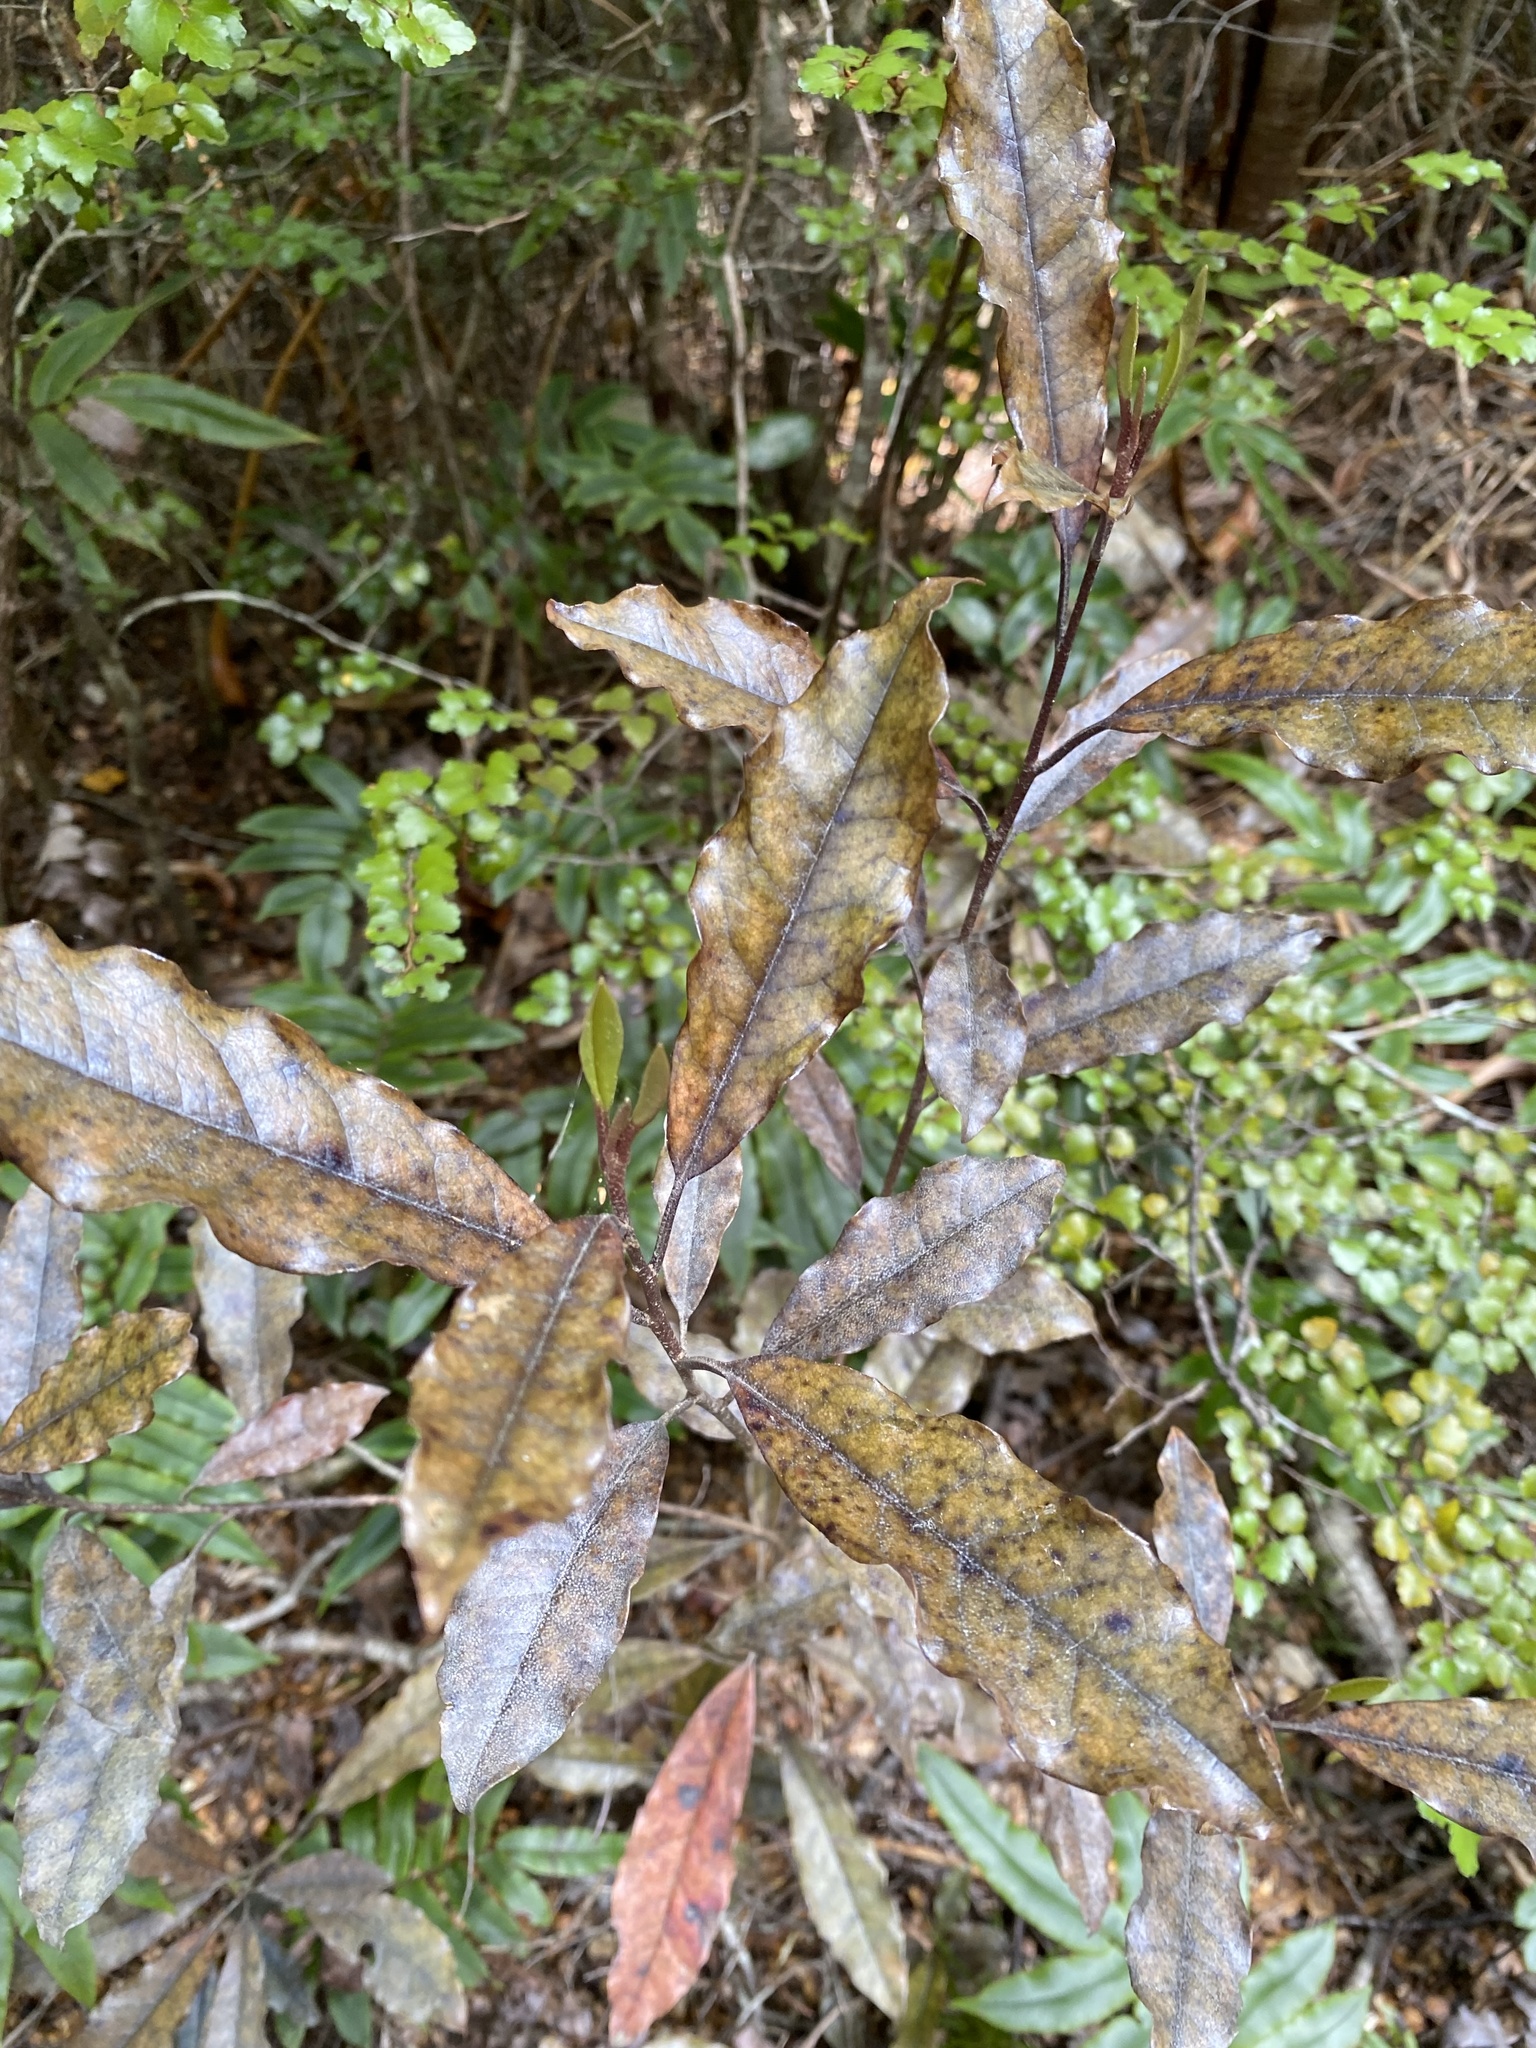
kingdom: Plantae
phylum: Tracheophyta
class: Magnoliopsida
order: Paracryphiales
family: Paracryphiaceae
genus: Quintinia
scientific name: Quintinia serrata
